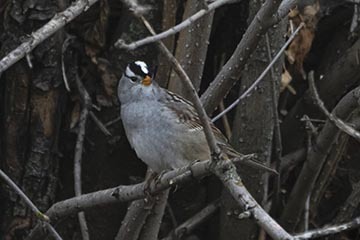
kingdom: Animalia
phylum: Chordata
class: Aves
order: Passeriformes
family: Passerellidae
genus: Zonotrichia
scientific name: Zonotrichia leucophrys
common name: White-crowned sparrow
